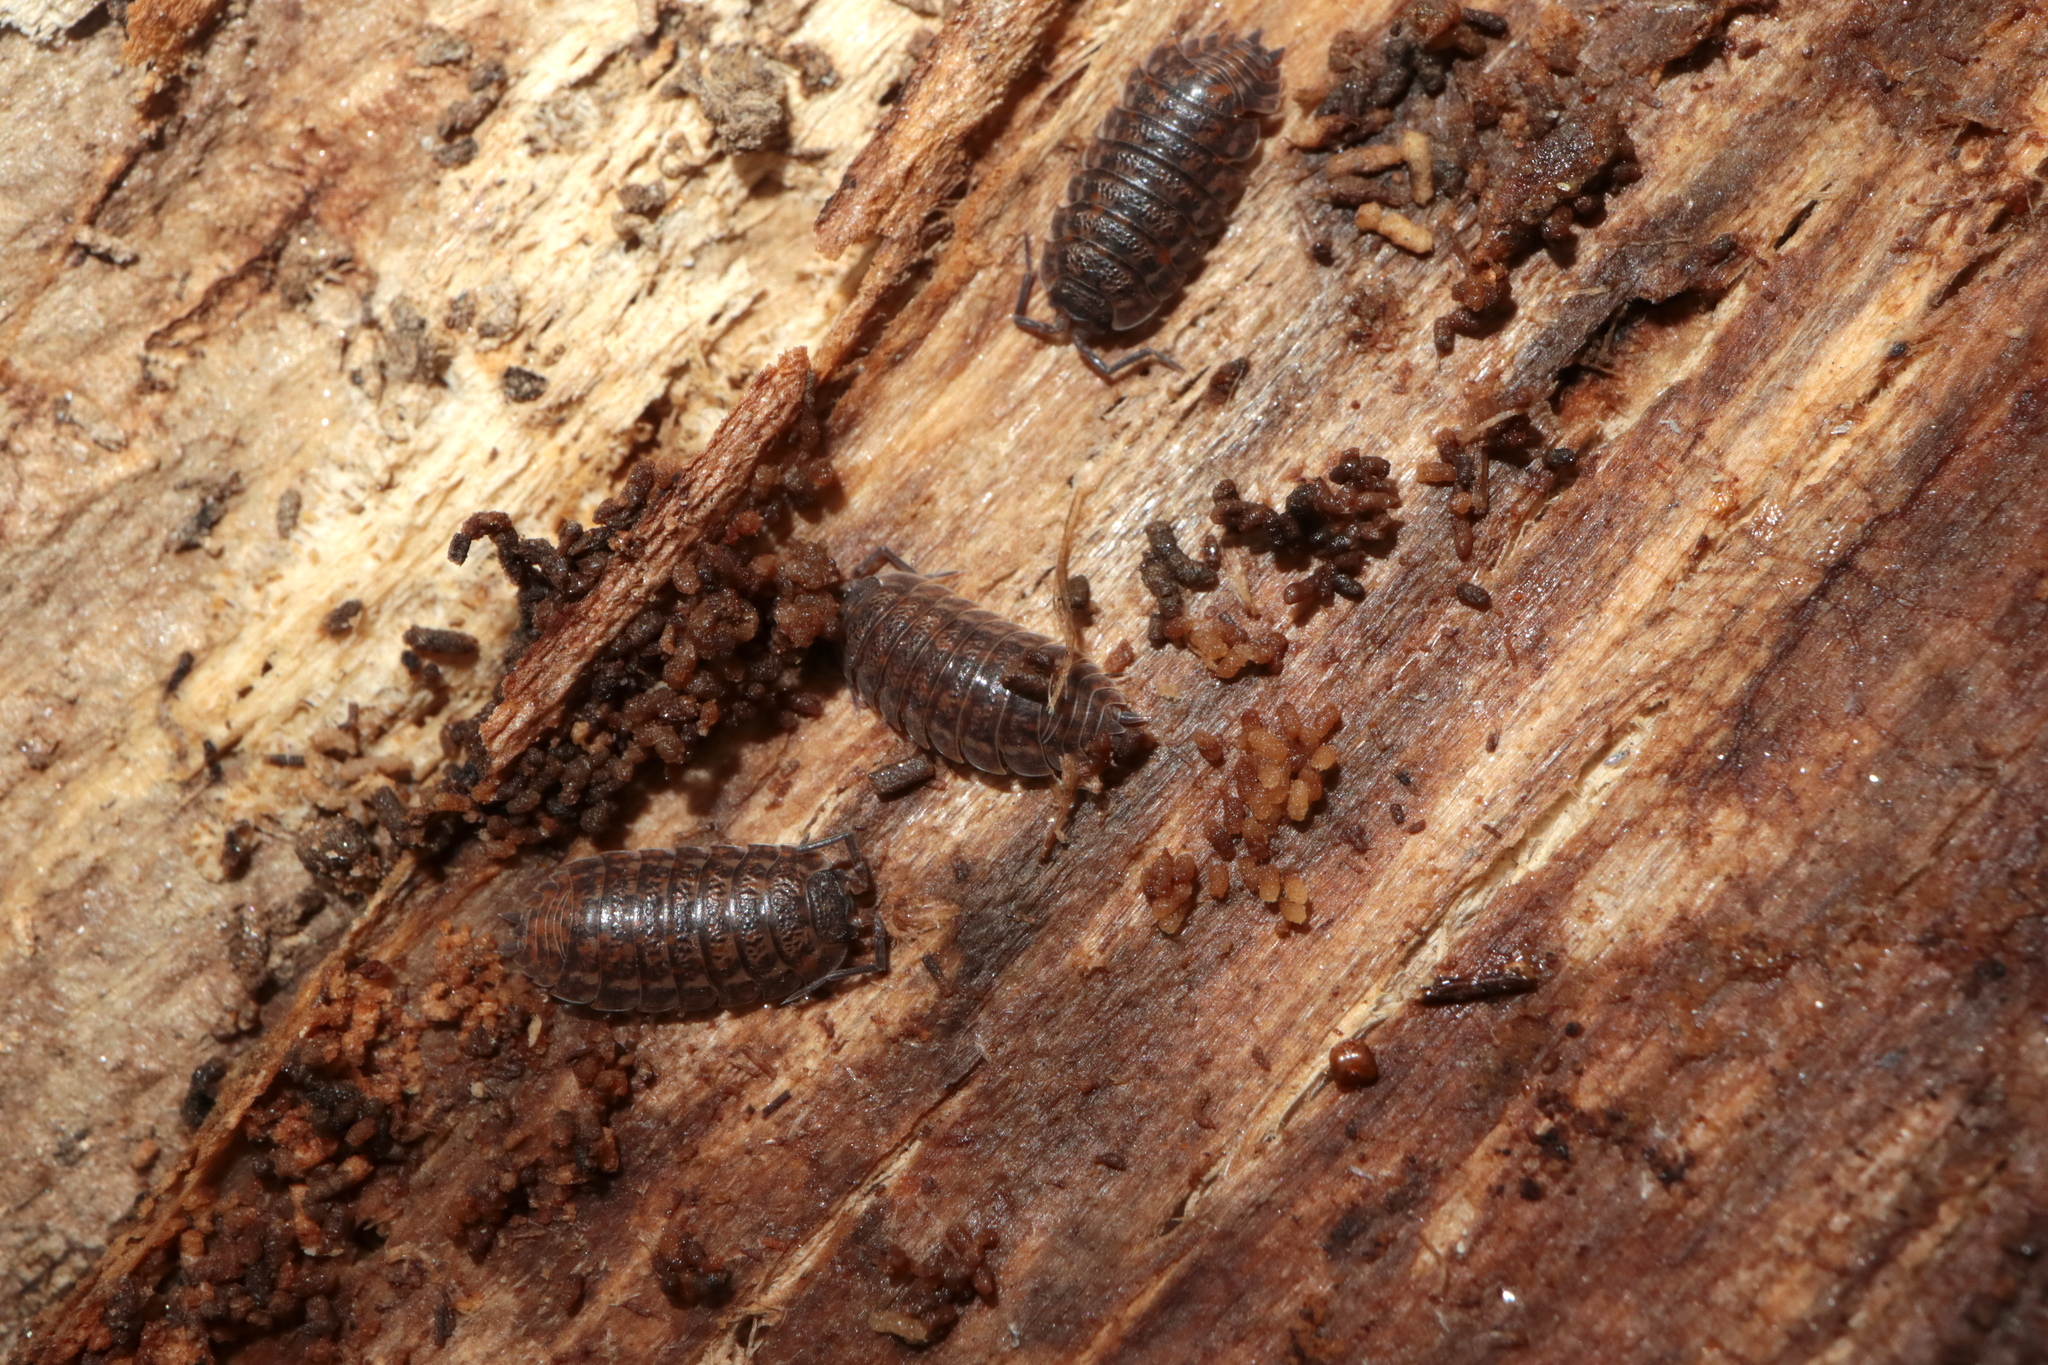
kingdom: Animalia
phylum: Arthropoda
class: Malacostraca
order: Isopoda
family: Trachelipodidae
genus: Trachelipus
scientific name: Trachelipus rathkii
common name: Isopod
